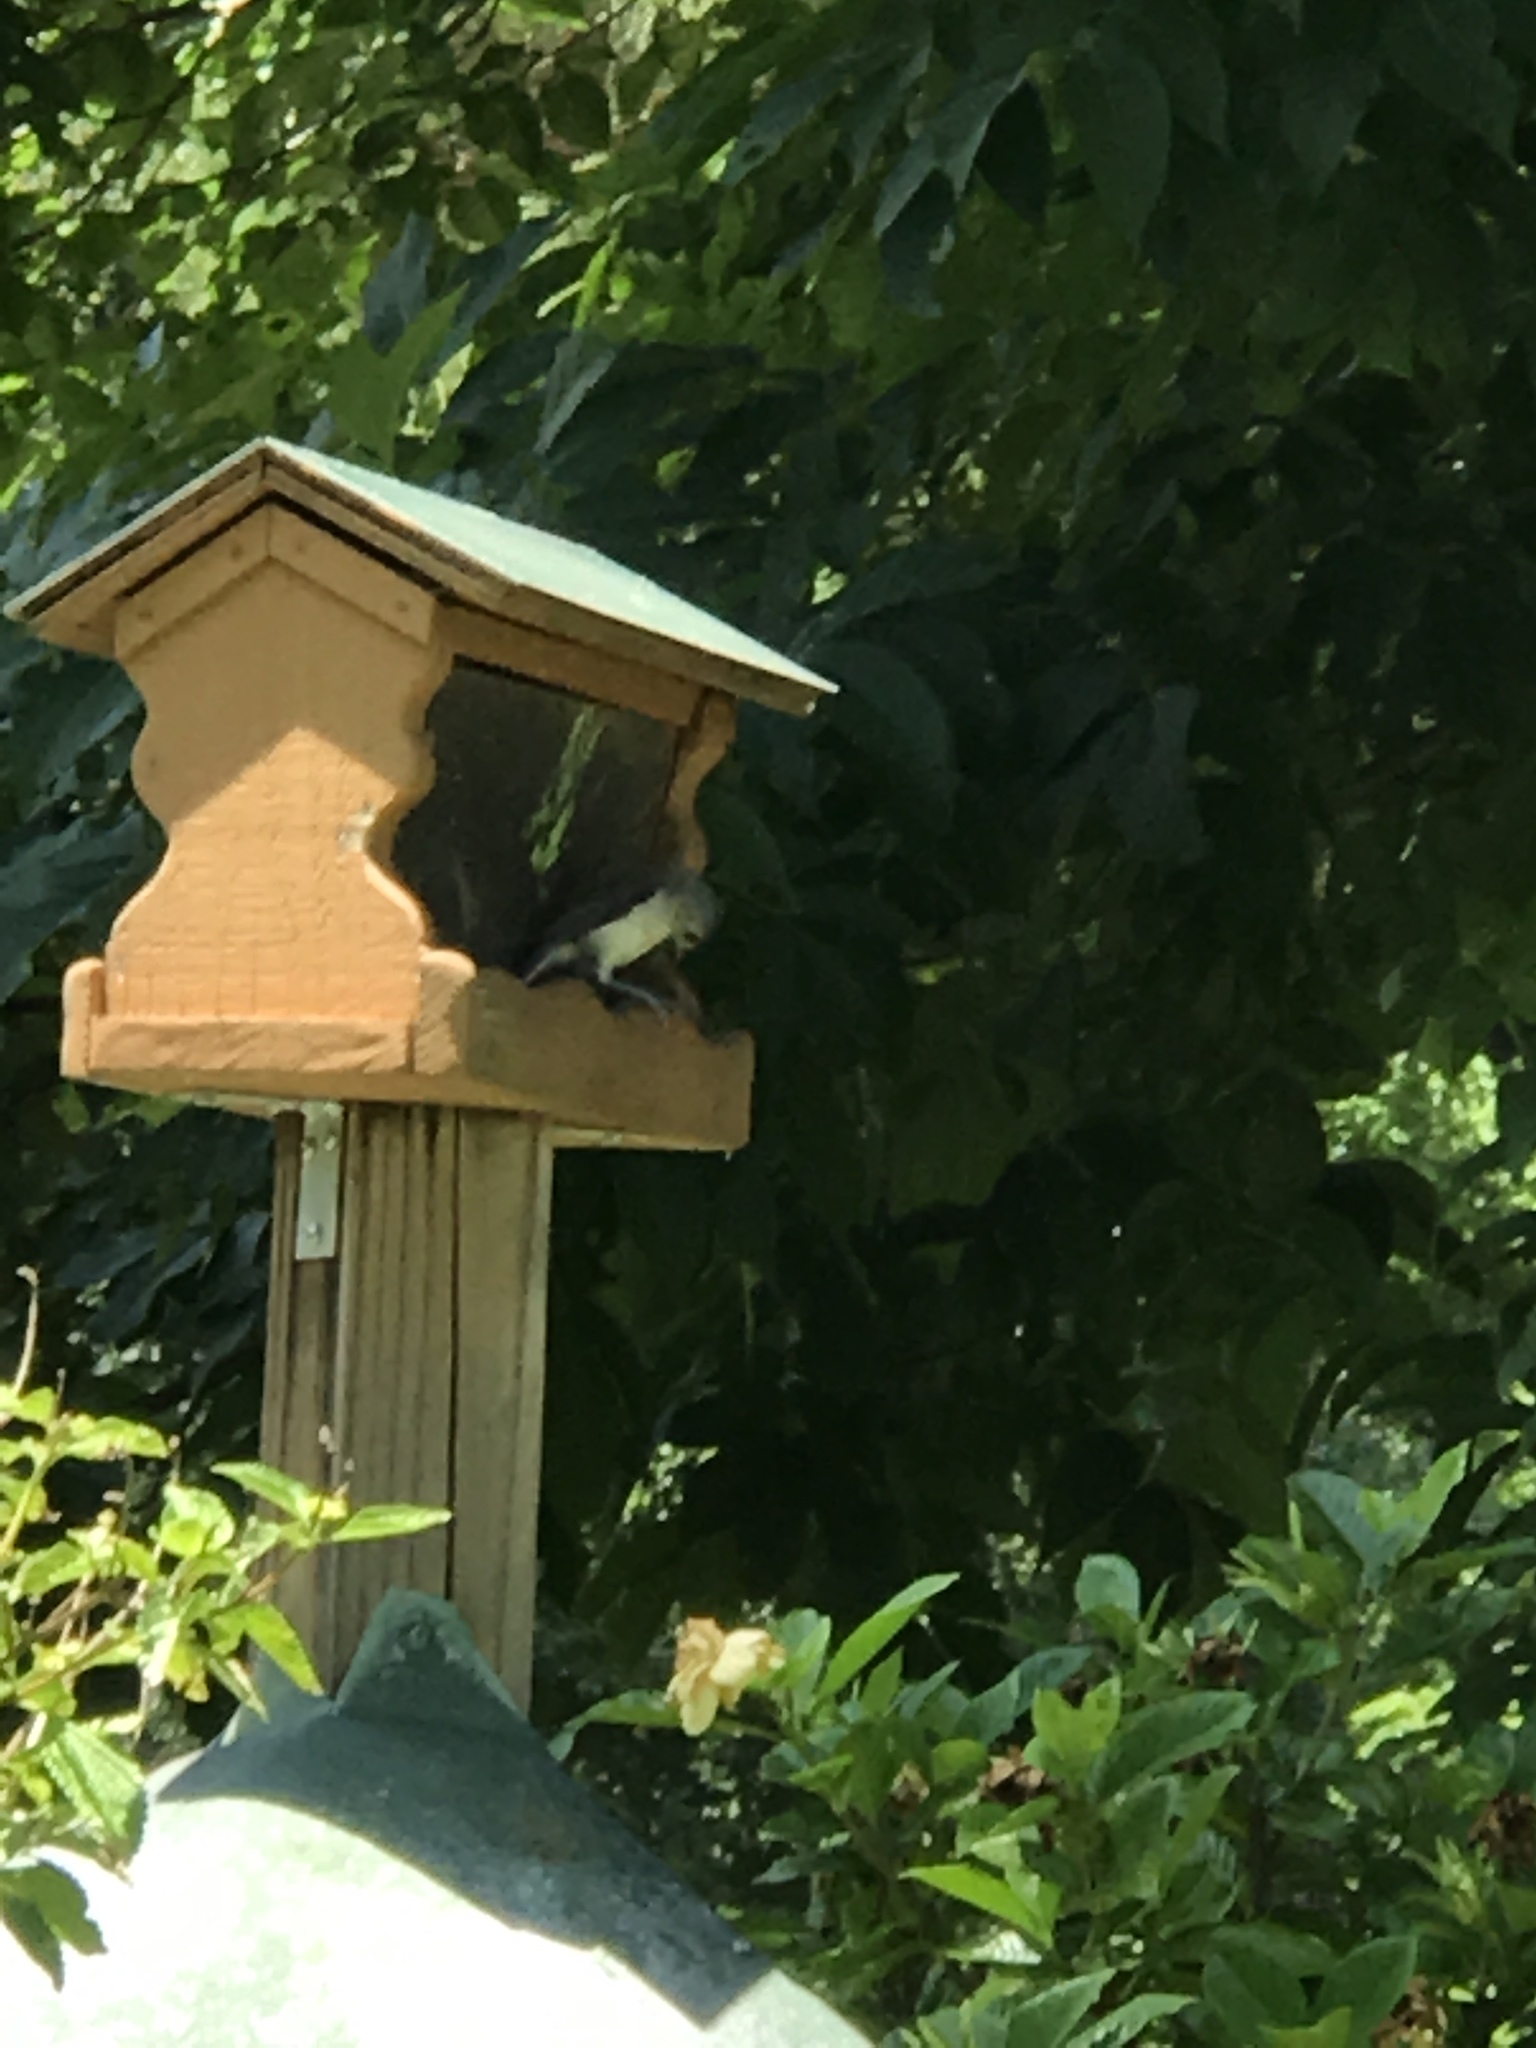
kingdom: Animalia
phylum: Chordata
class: Aves
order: Passeriformes
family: Paridae
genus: Baeolophus
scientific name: Baeolophus bicolor
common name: Tufted titmouse
